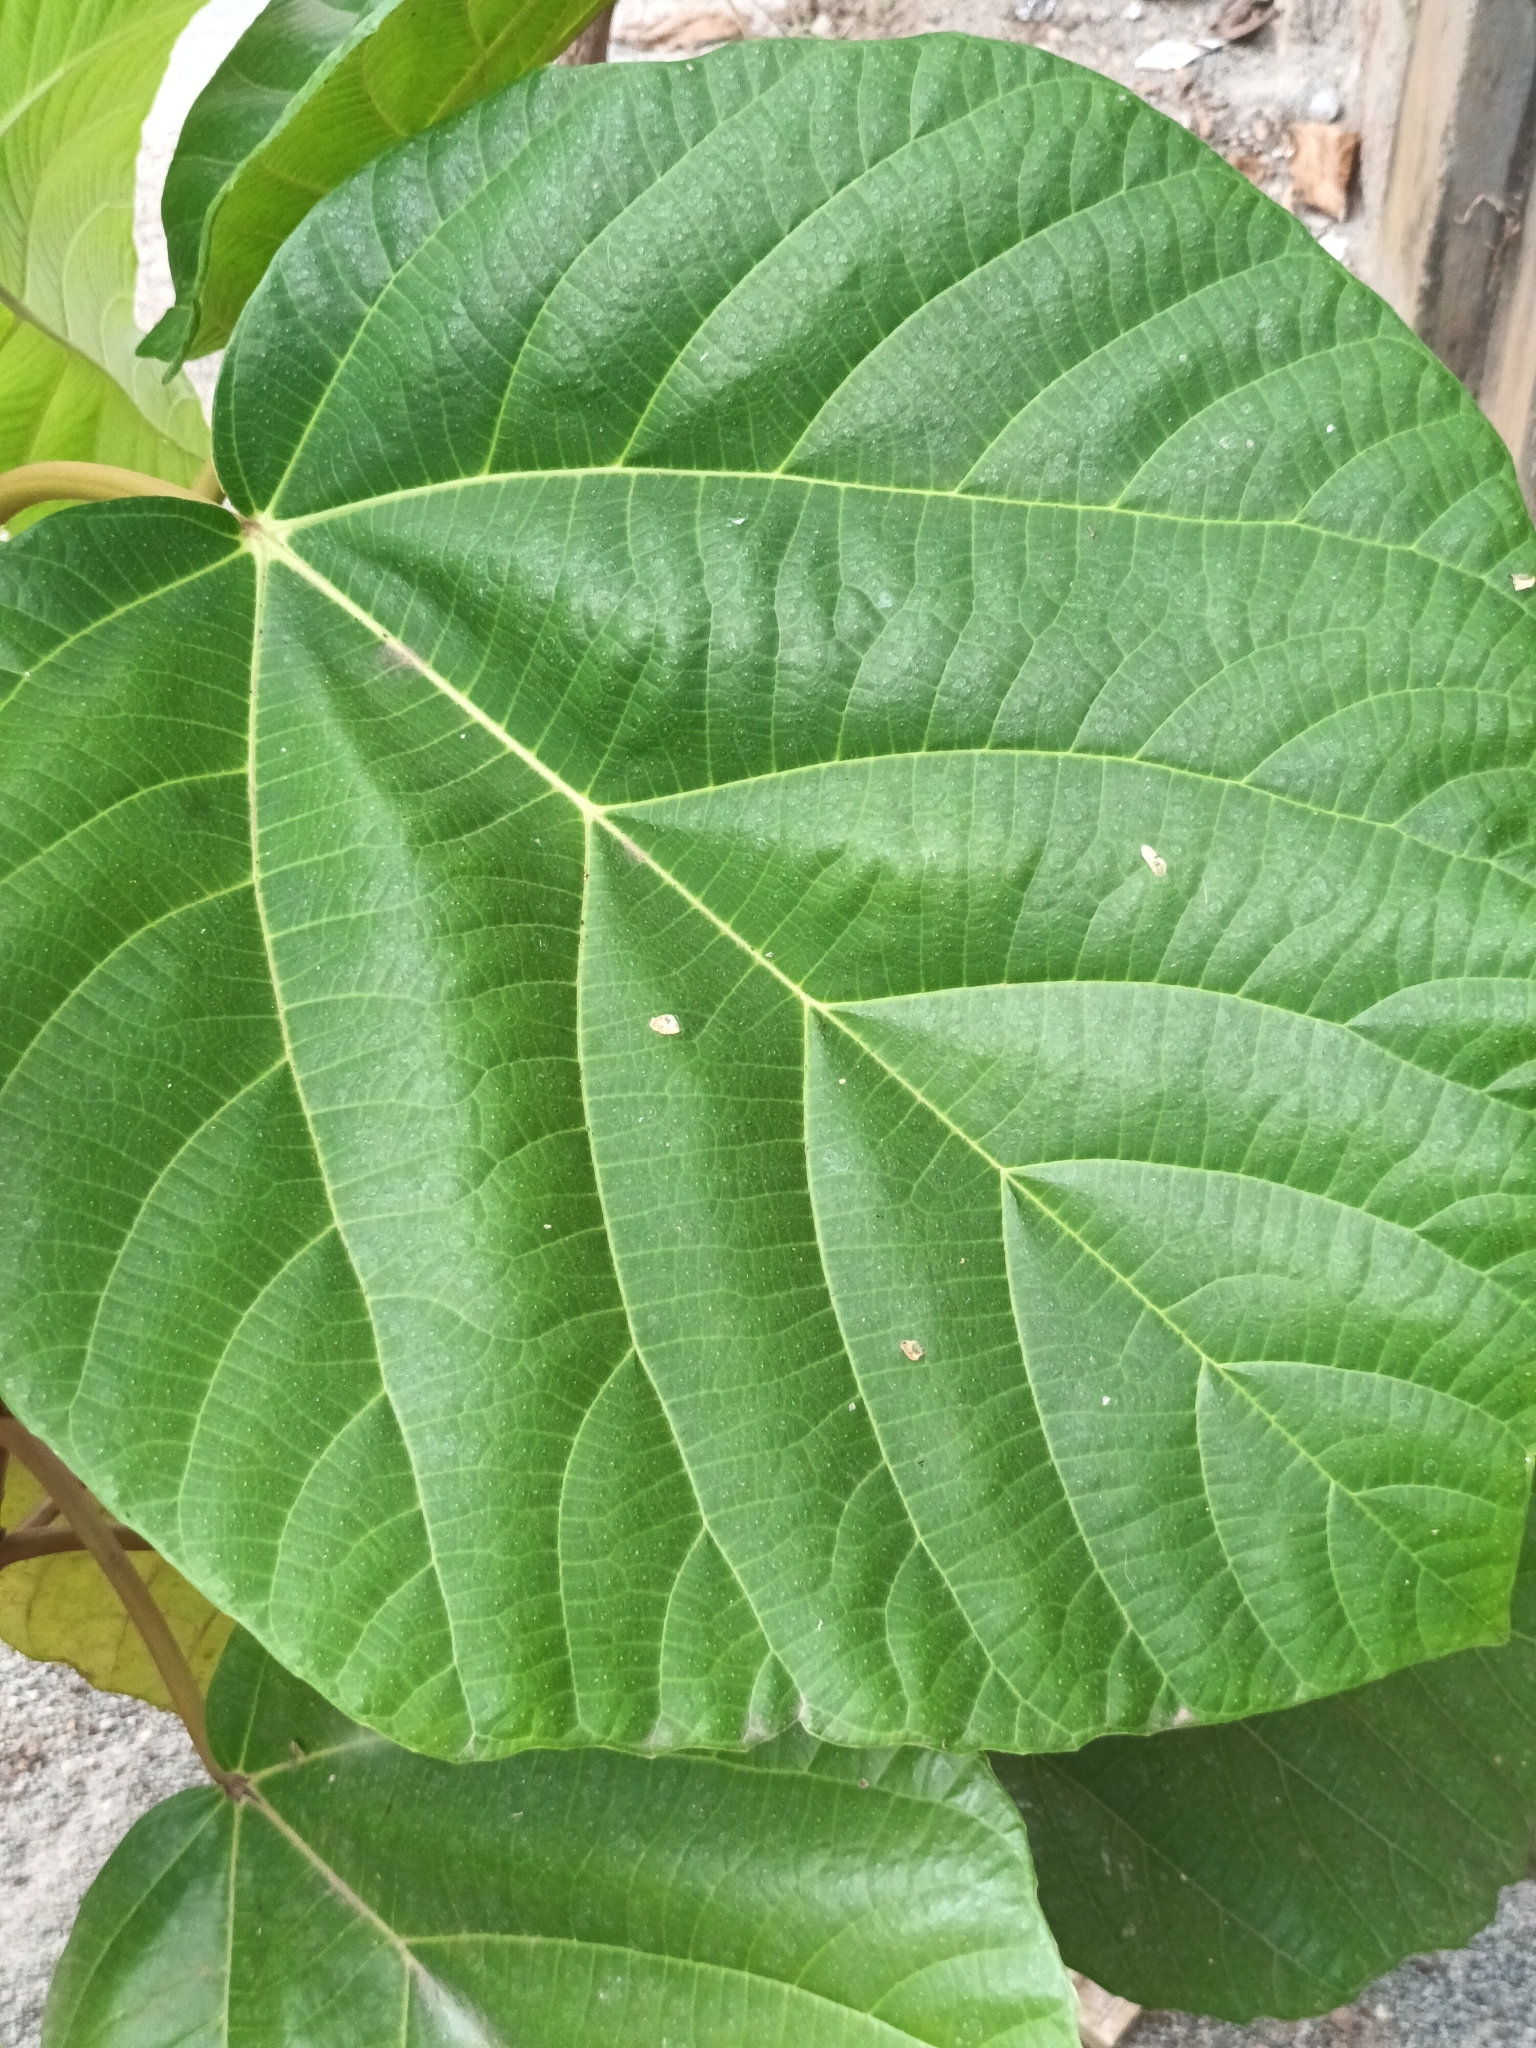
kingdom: Plantae
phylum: Tracheophyta
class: Magnoliopsida
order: Rosales
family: Moraceae
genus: Ficus
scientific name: Ficus auriculata
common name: Roxburgh fig
